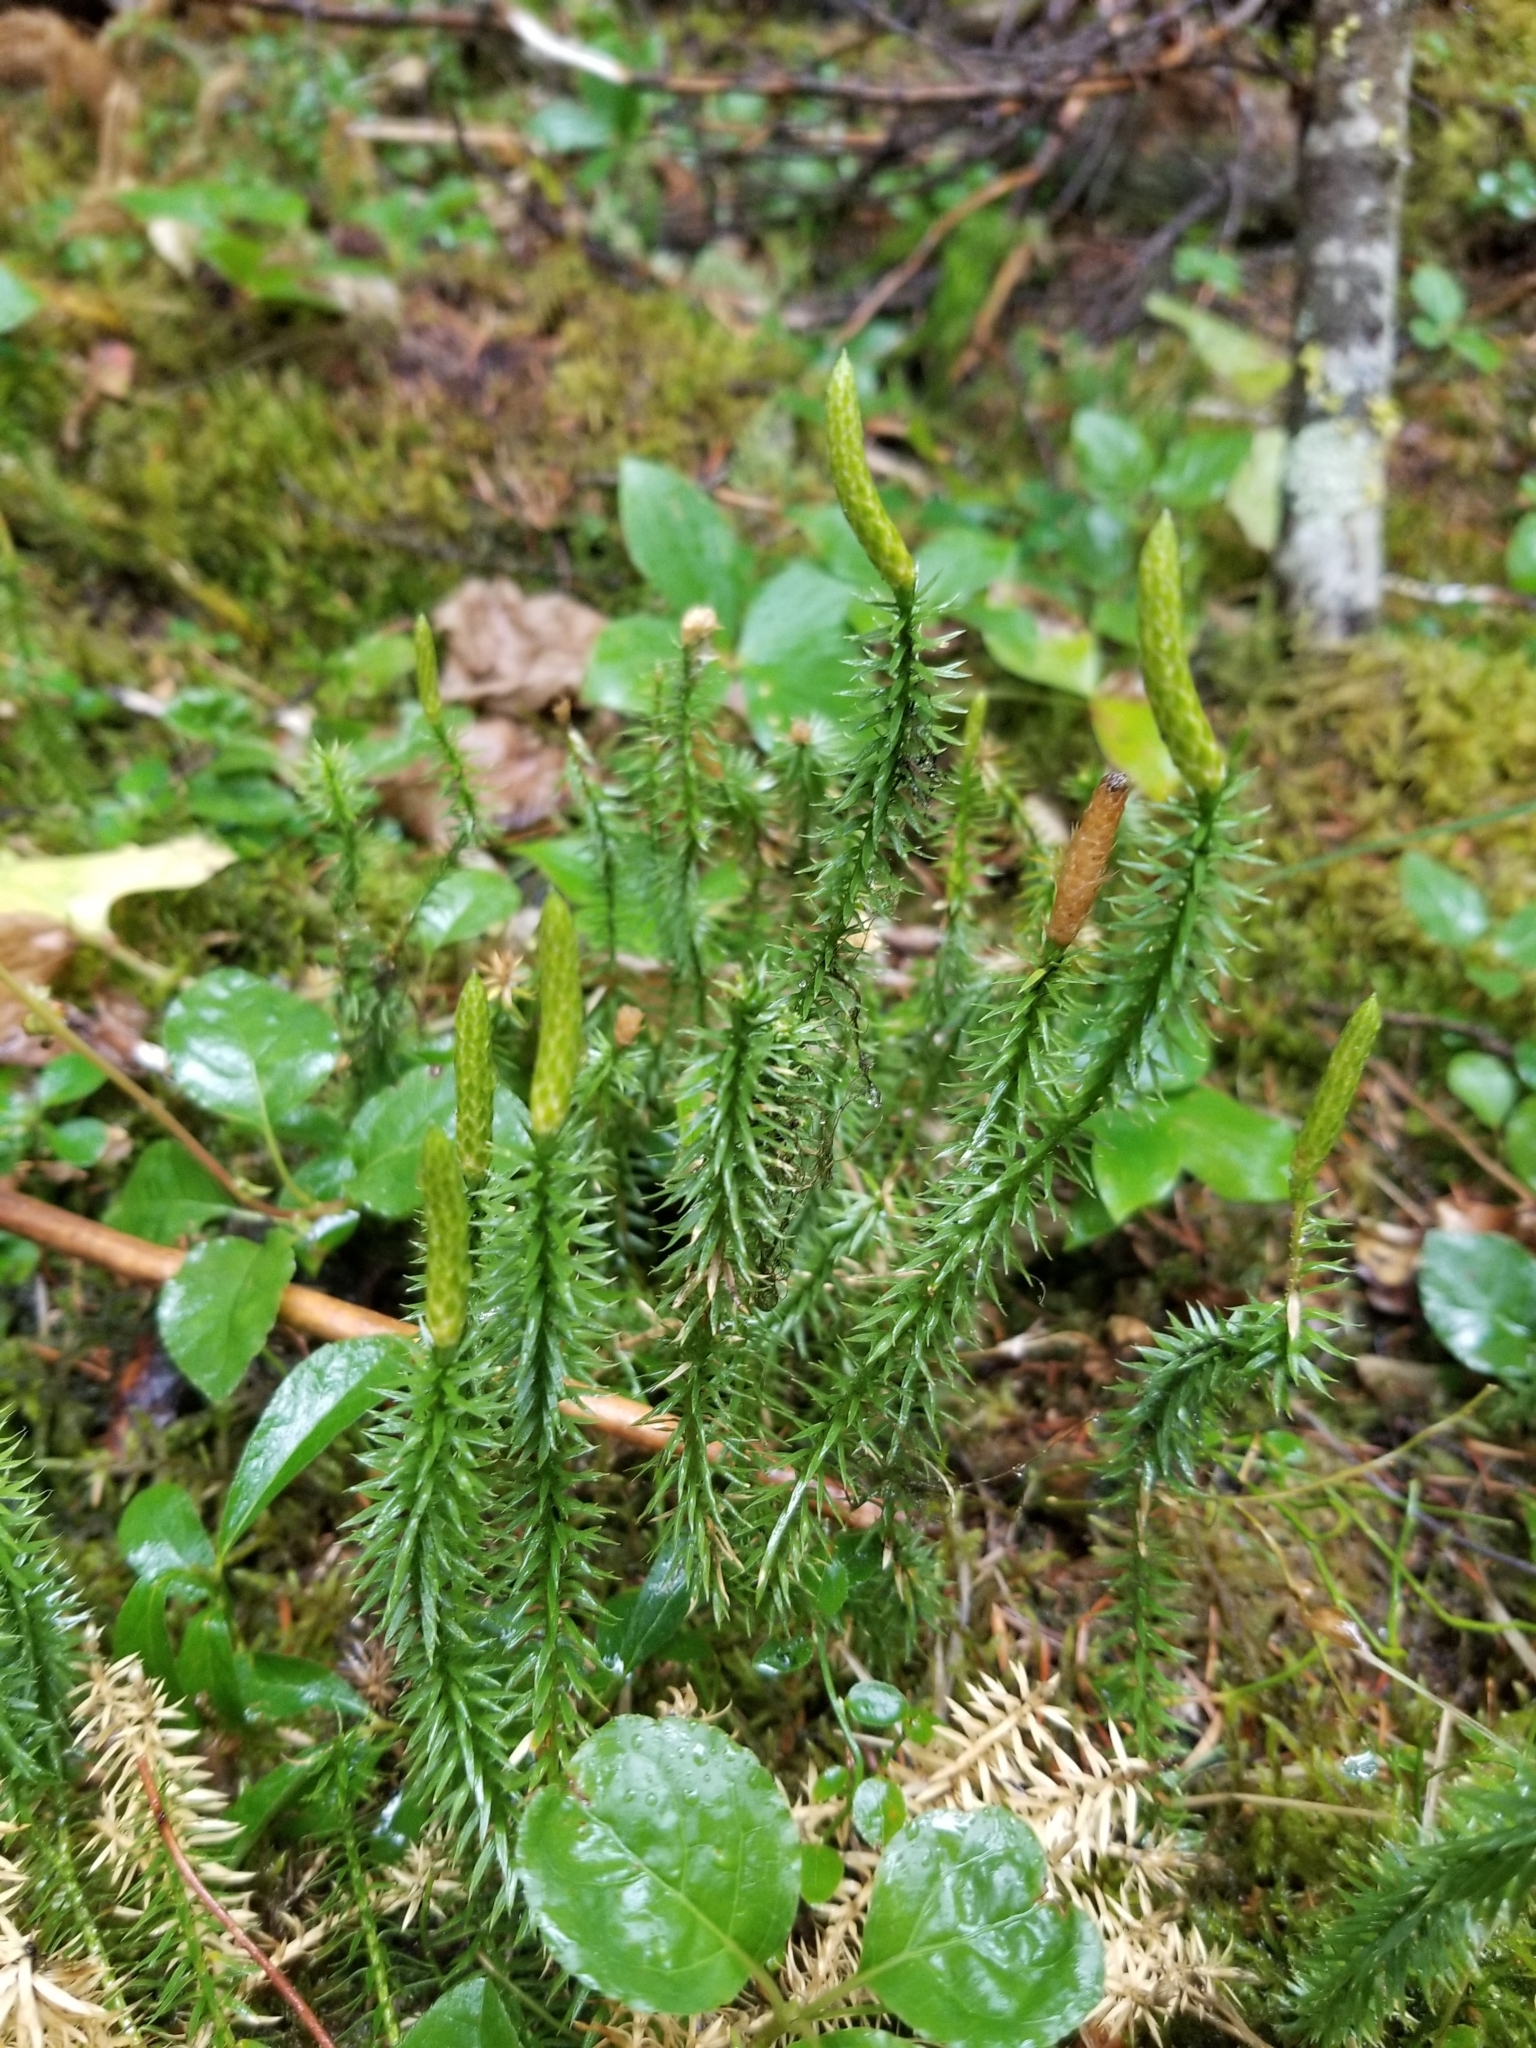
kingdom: Plantae
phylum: Tracheophyta
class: Lycopodiopsida
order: Lycopodiales
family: Lycopodiaceae
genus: Spinulum
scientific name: Spinulum annotinum
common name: Interrupted club-moss
